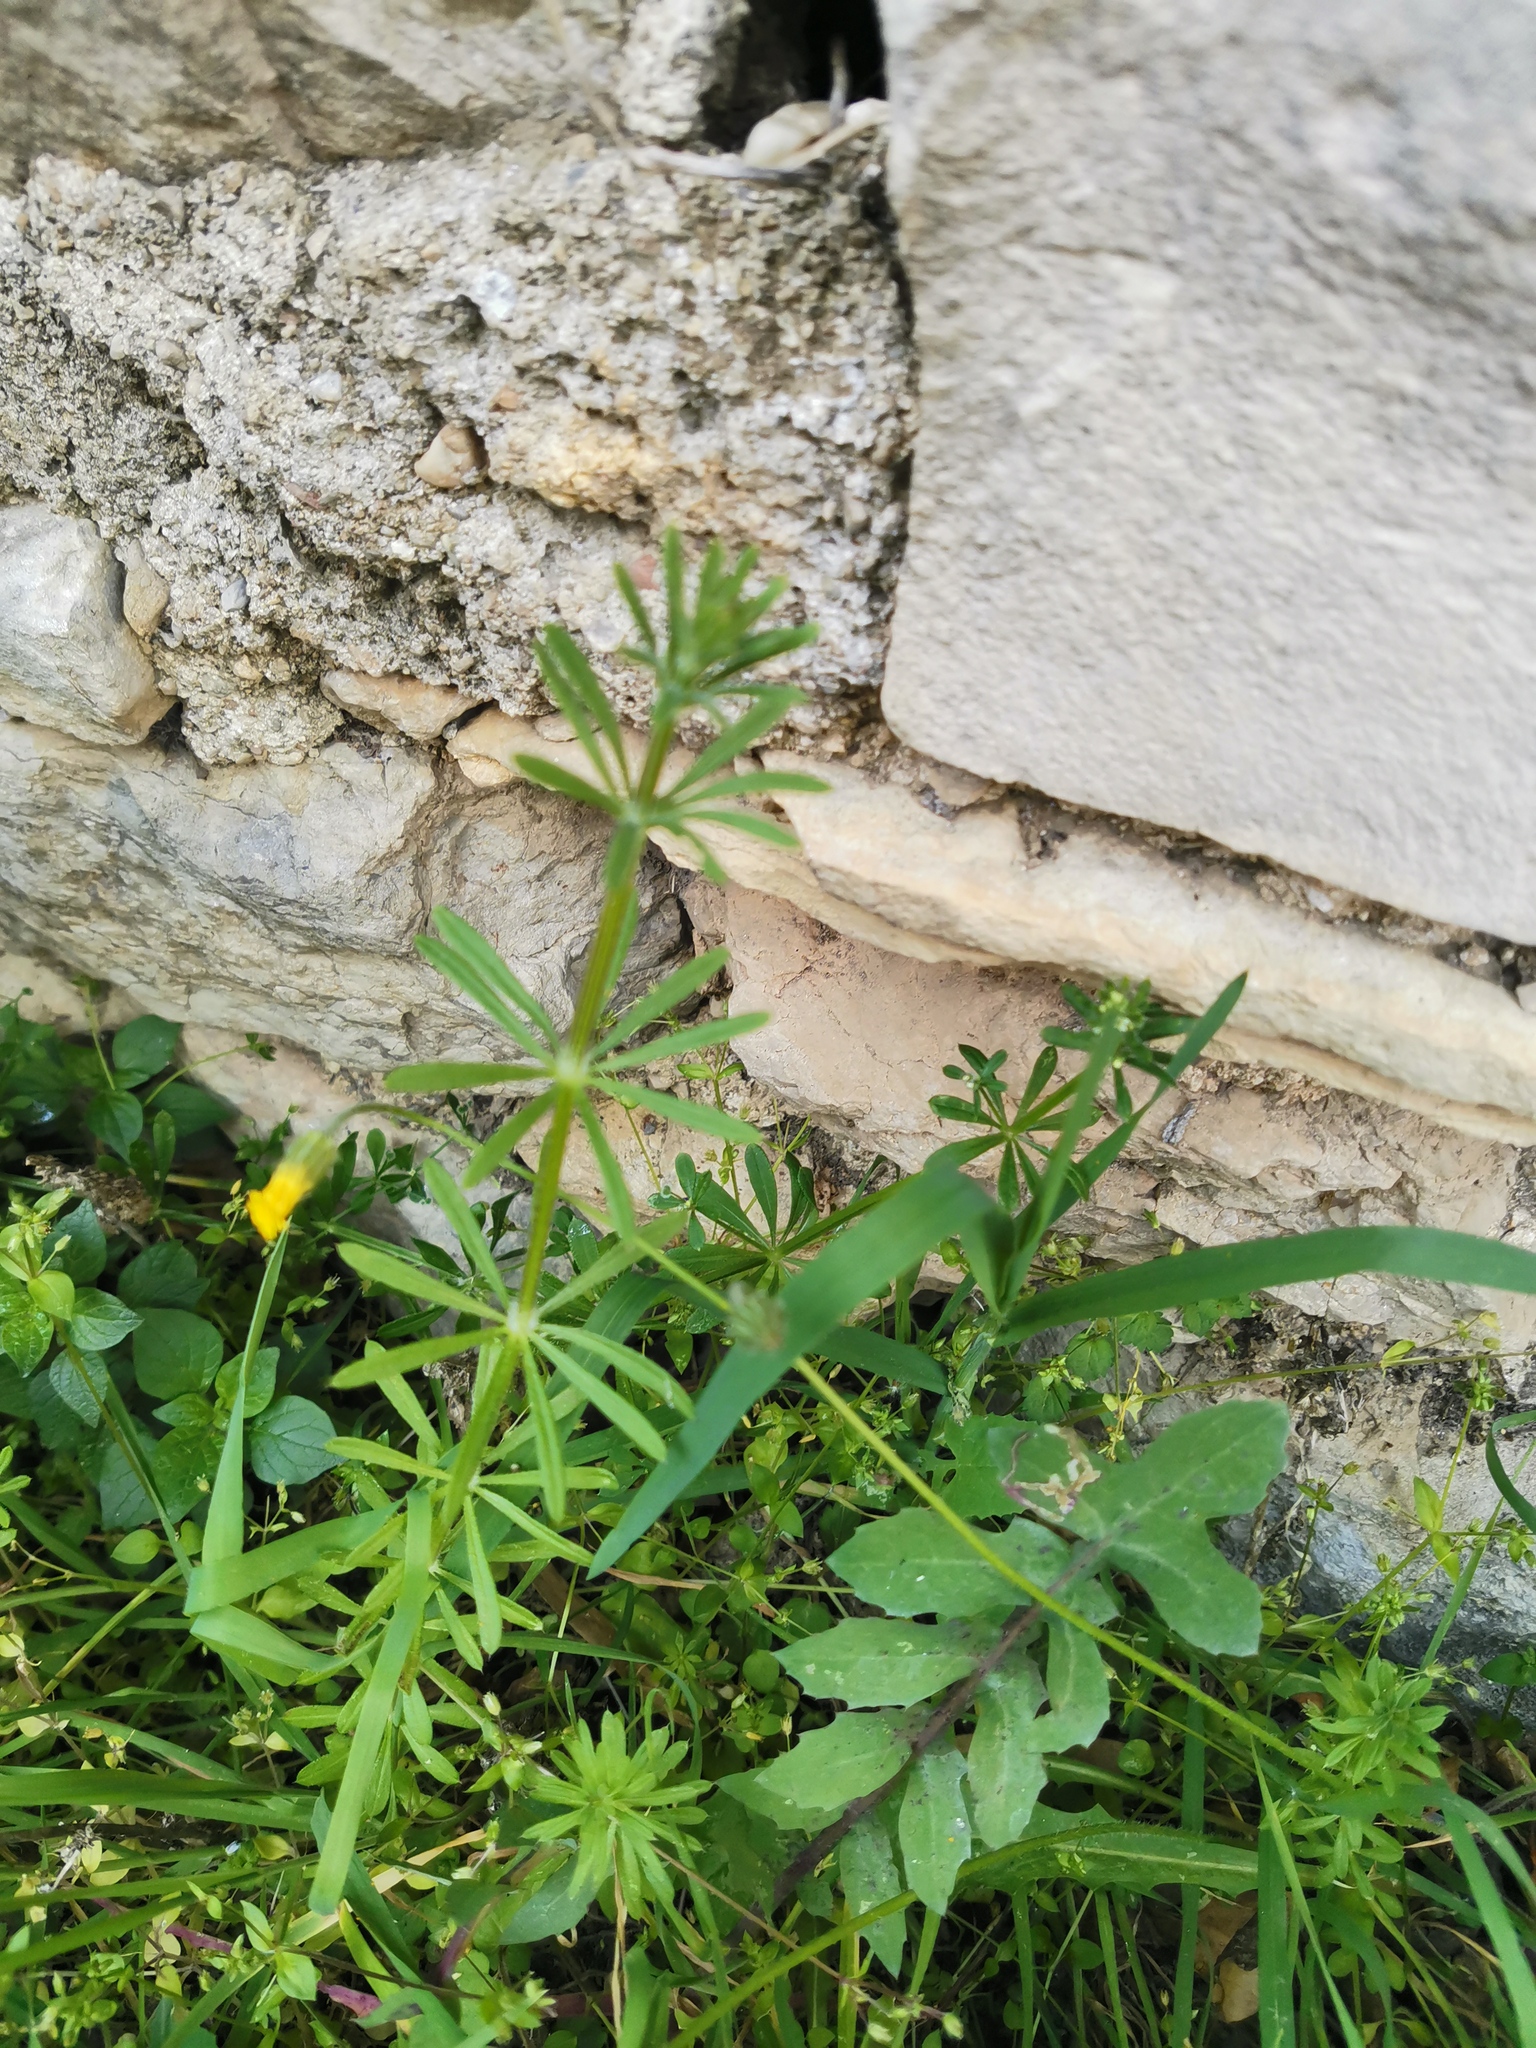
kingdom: Plantae
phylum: Tracheophyta
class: Magnoliopsida
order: Gentianales
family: Rubiaceae
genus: Galium
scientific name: Galium aparine
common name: Cleavers
